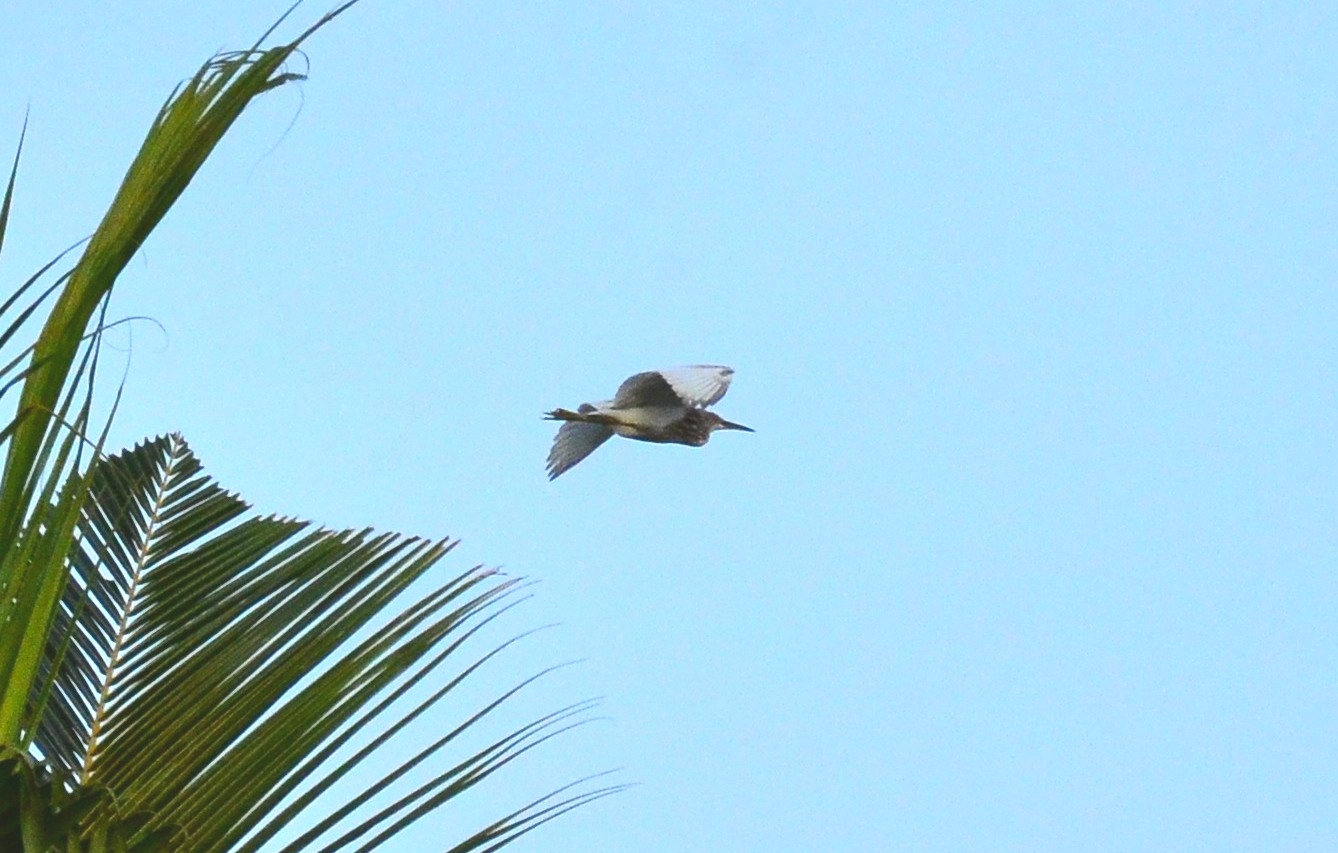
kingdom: Animalia
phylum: Chordata
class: Aves
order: Pelecaniformes
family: Ardeidae
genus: Ardeola
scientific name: Ardeola grayii
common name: Indian pond heron
